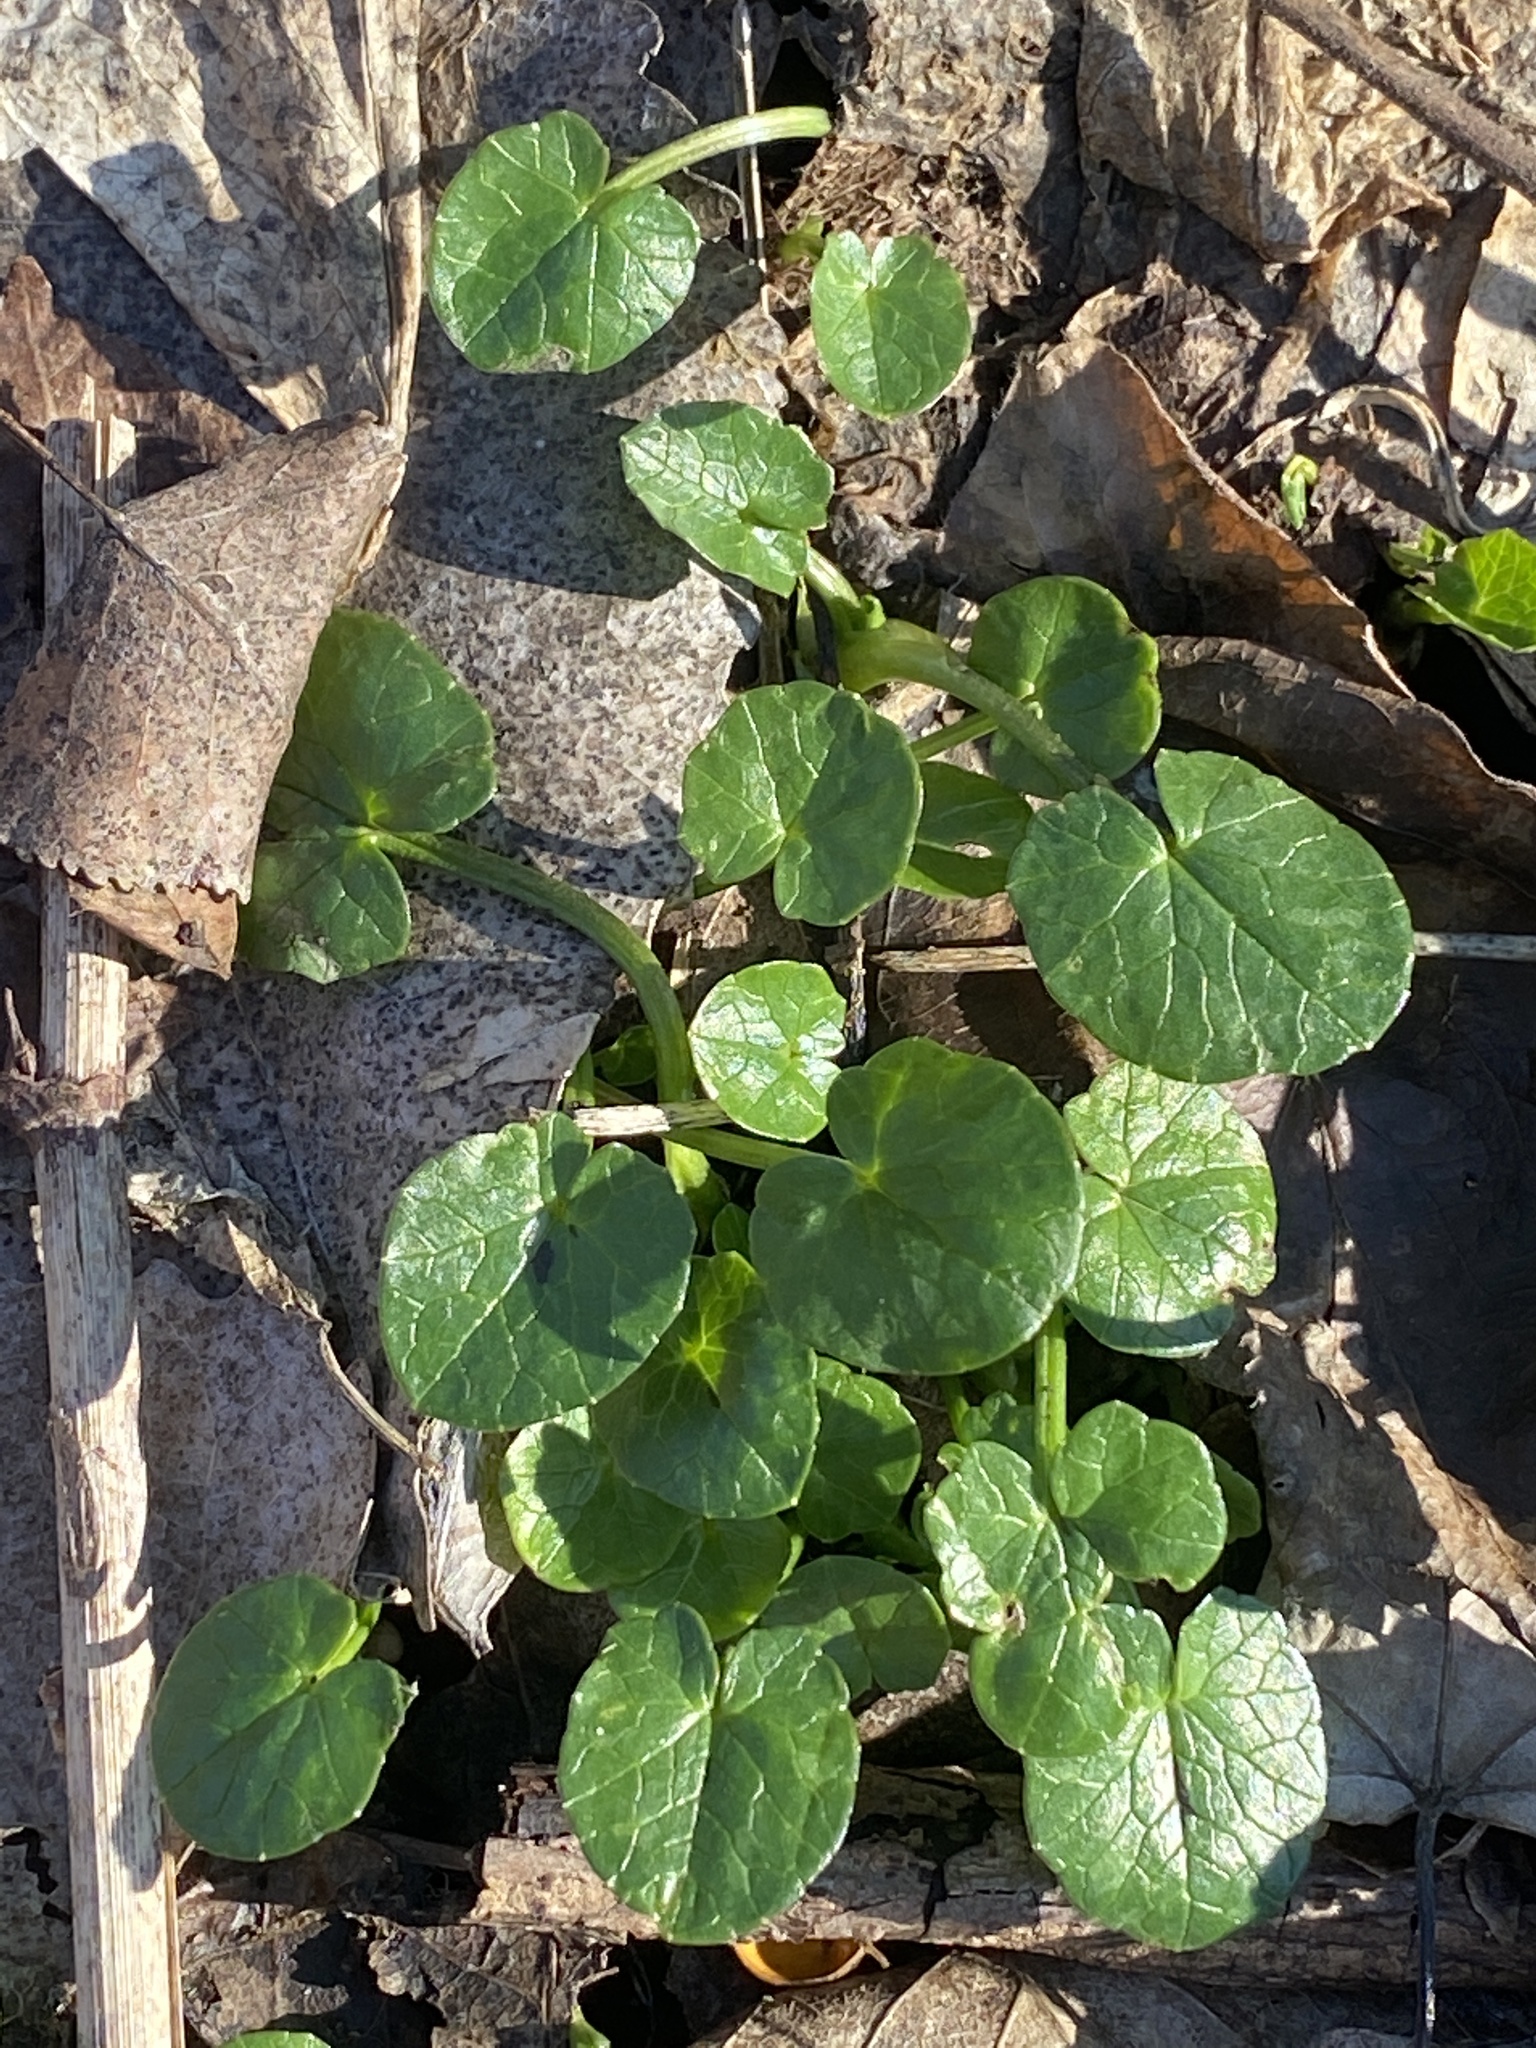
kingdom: Plantae
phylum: Tracheophyta
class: Magnoliopsida
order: Ranunculales
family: Ranunculaceae
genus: Ficaria
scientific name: Ficaria verna
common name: Lesser celandine
